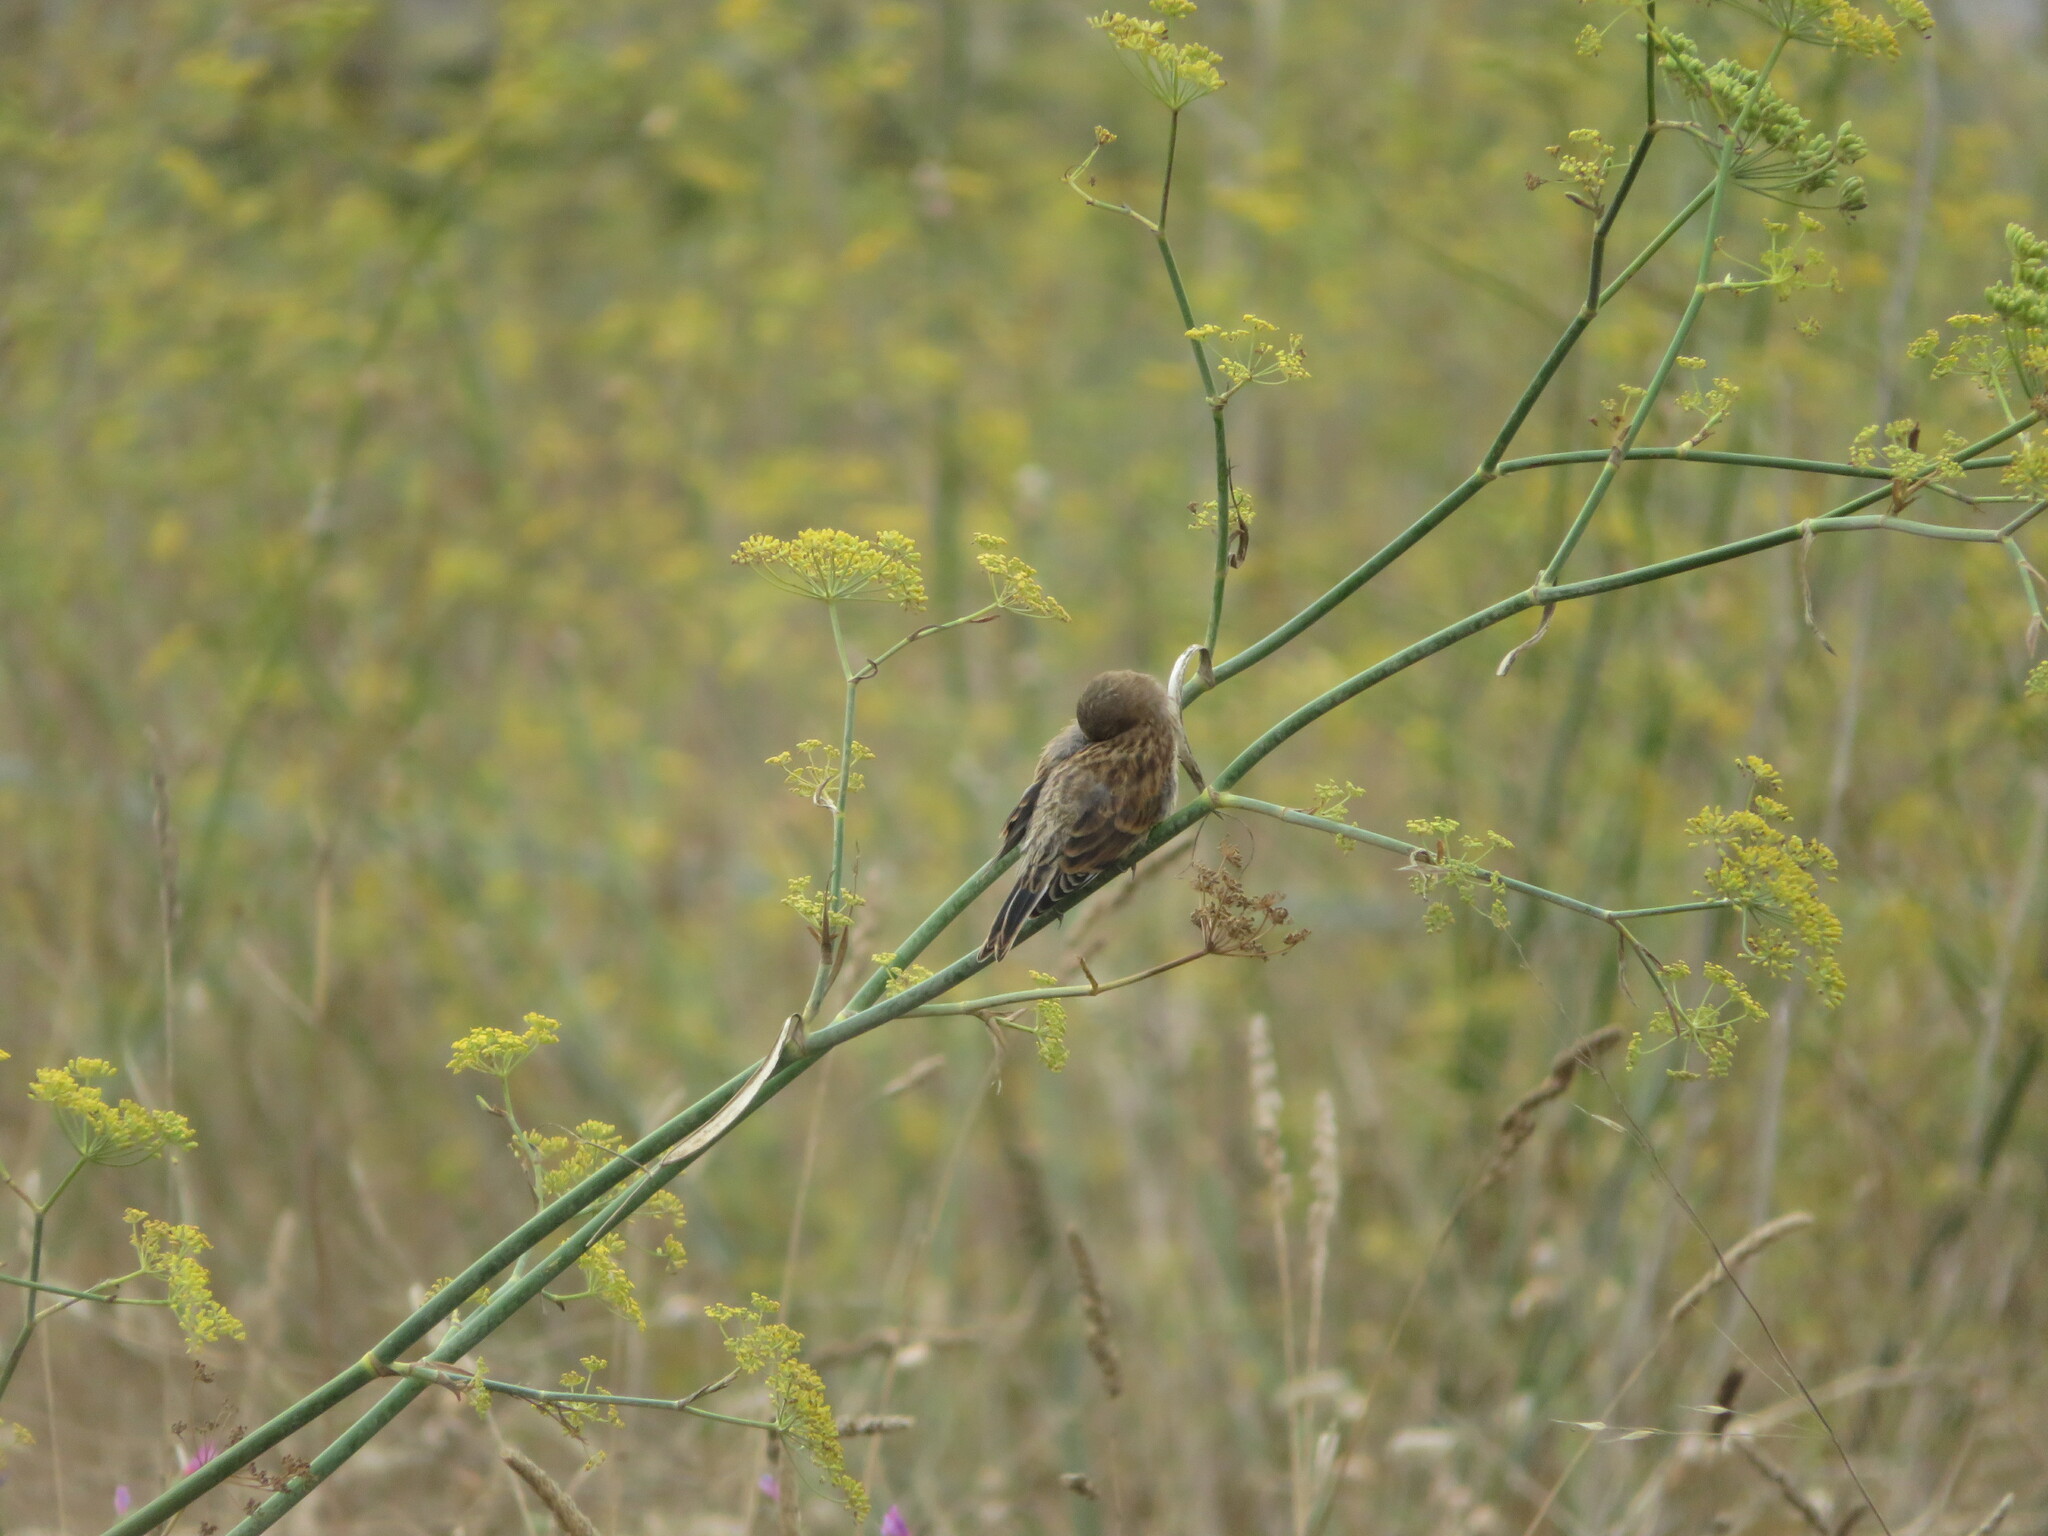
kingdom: Animalia
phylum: Chordata
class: Aves
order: Passeriformes
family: Fringillidae
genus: Linaria
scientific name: Linaria cannabina
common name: Common linnet
